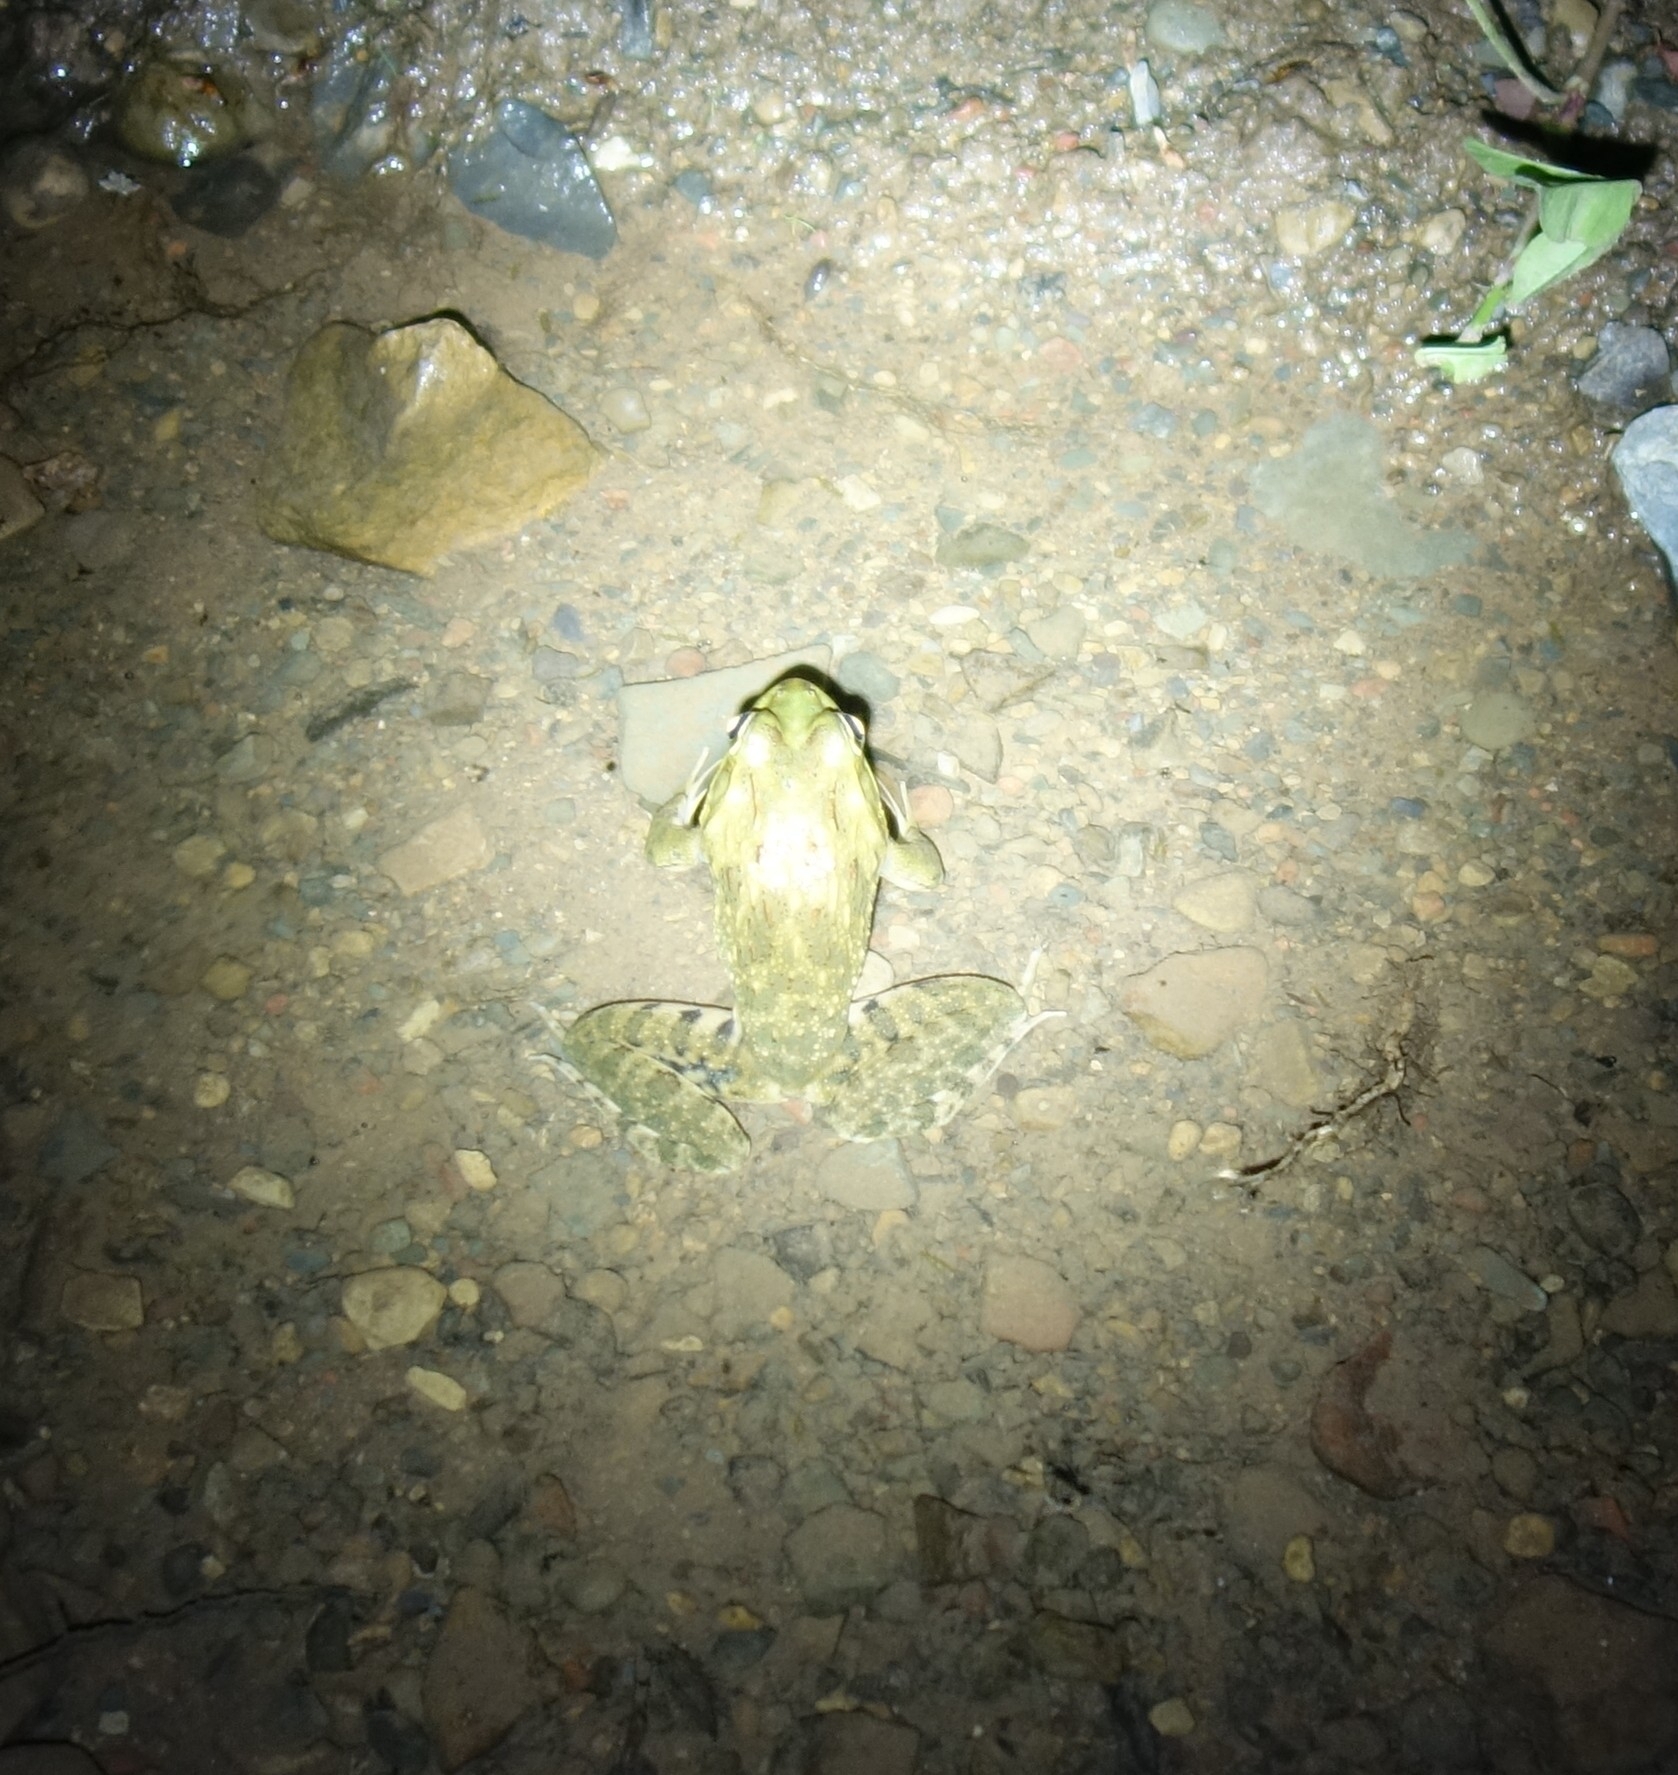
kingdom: Animalia
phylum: Chordata
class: Amphibia
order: Anura
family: Pyxicephalidae
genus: Amietia
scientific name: Amietia poyntoni
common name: Poynton's river frog
